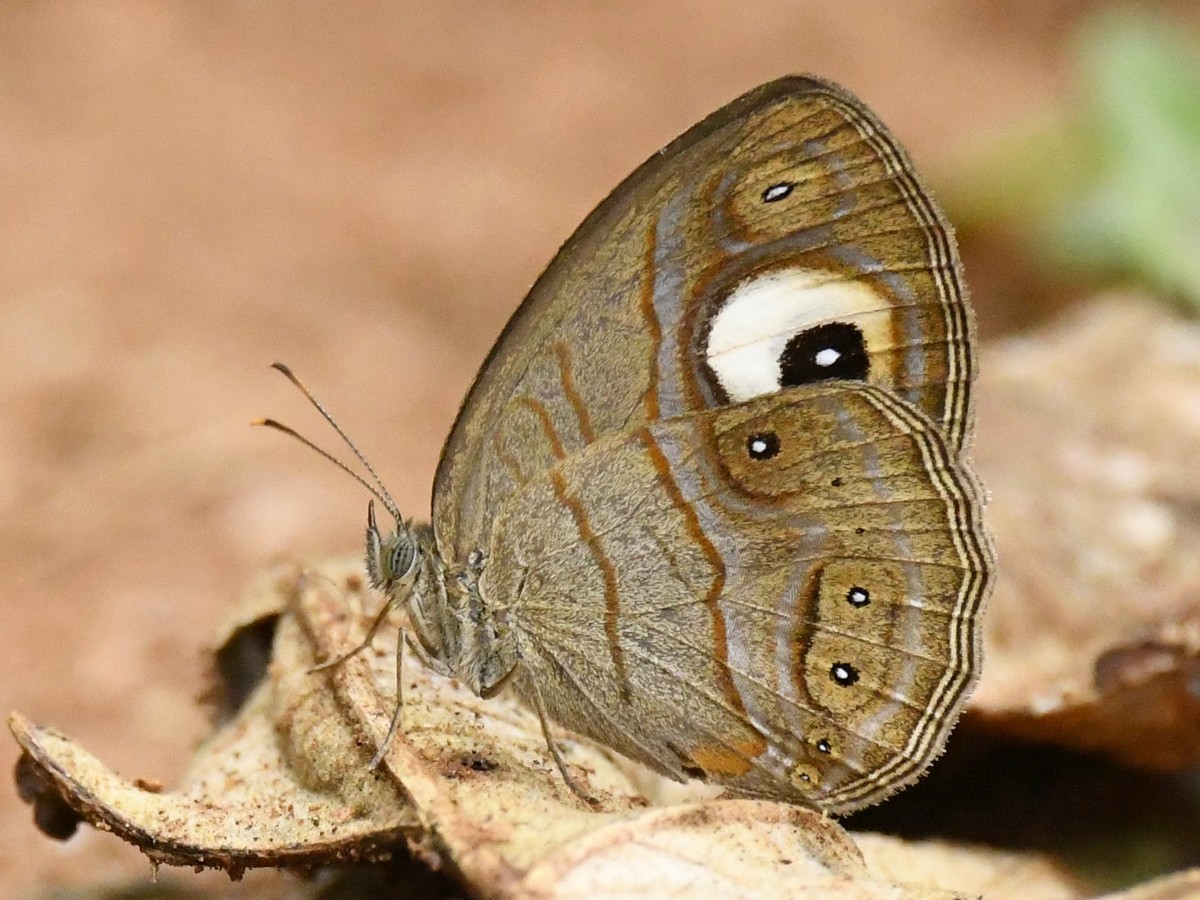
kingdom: Animalia
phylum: Arthropoda
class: Insecta
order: Lepidoptera
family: Nymphalidae
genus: Mycalesis
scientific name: Mycalesis patnia
